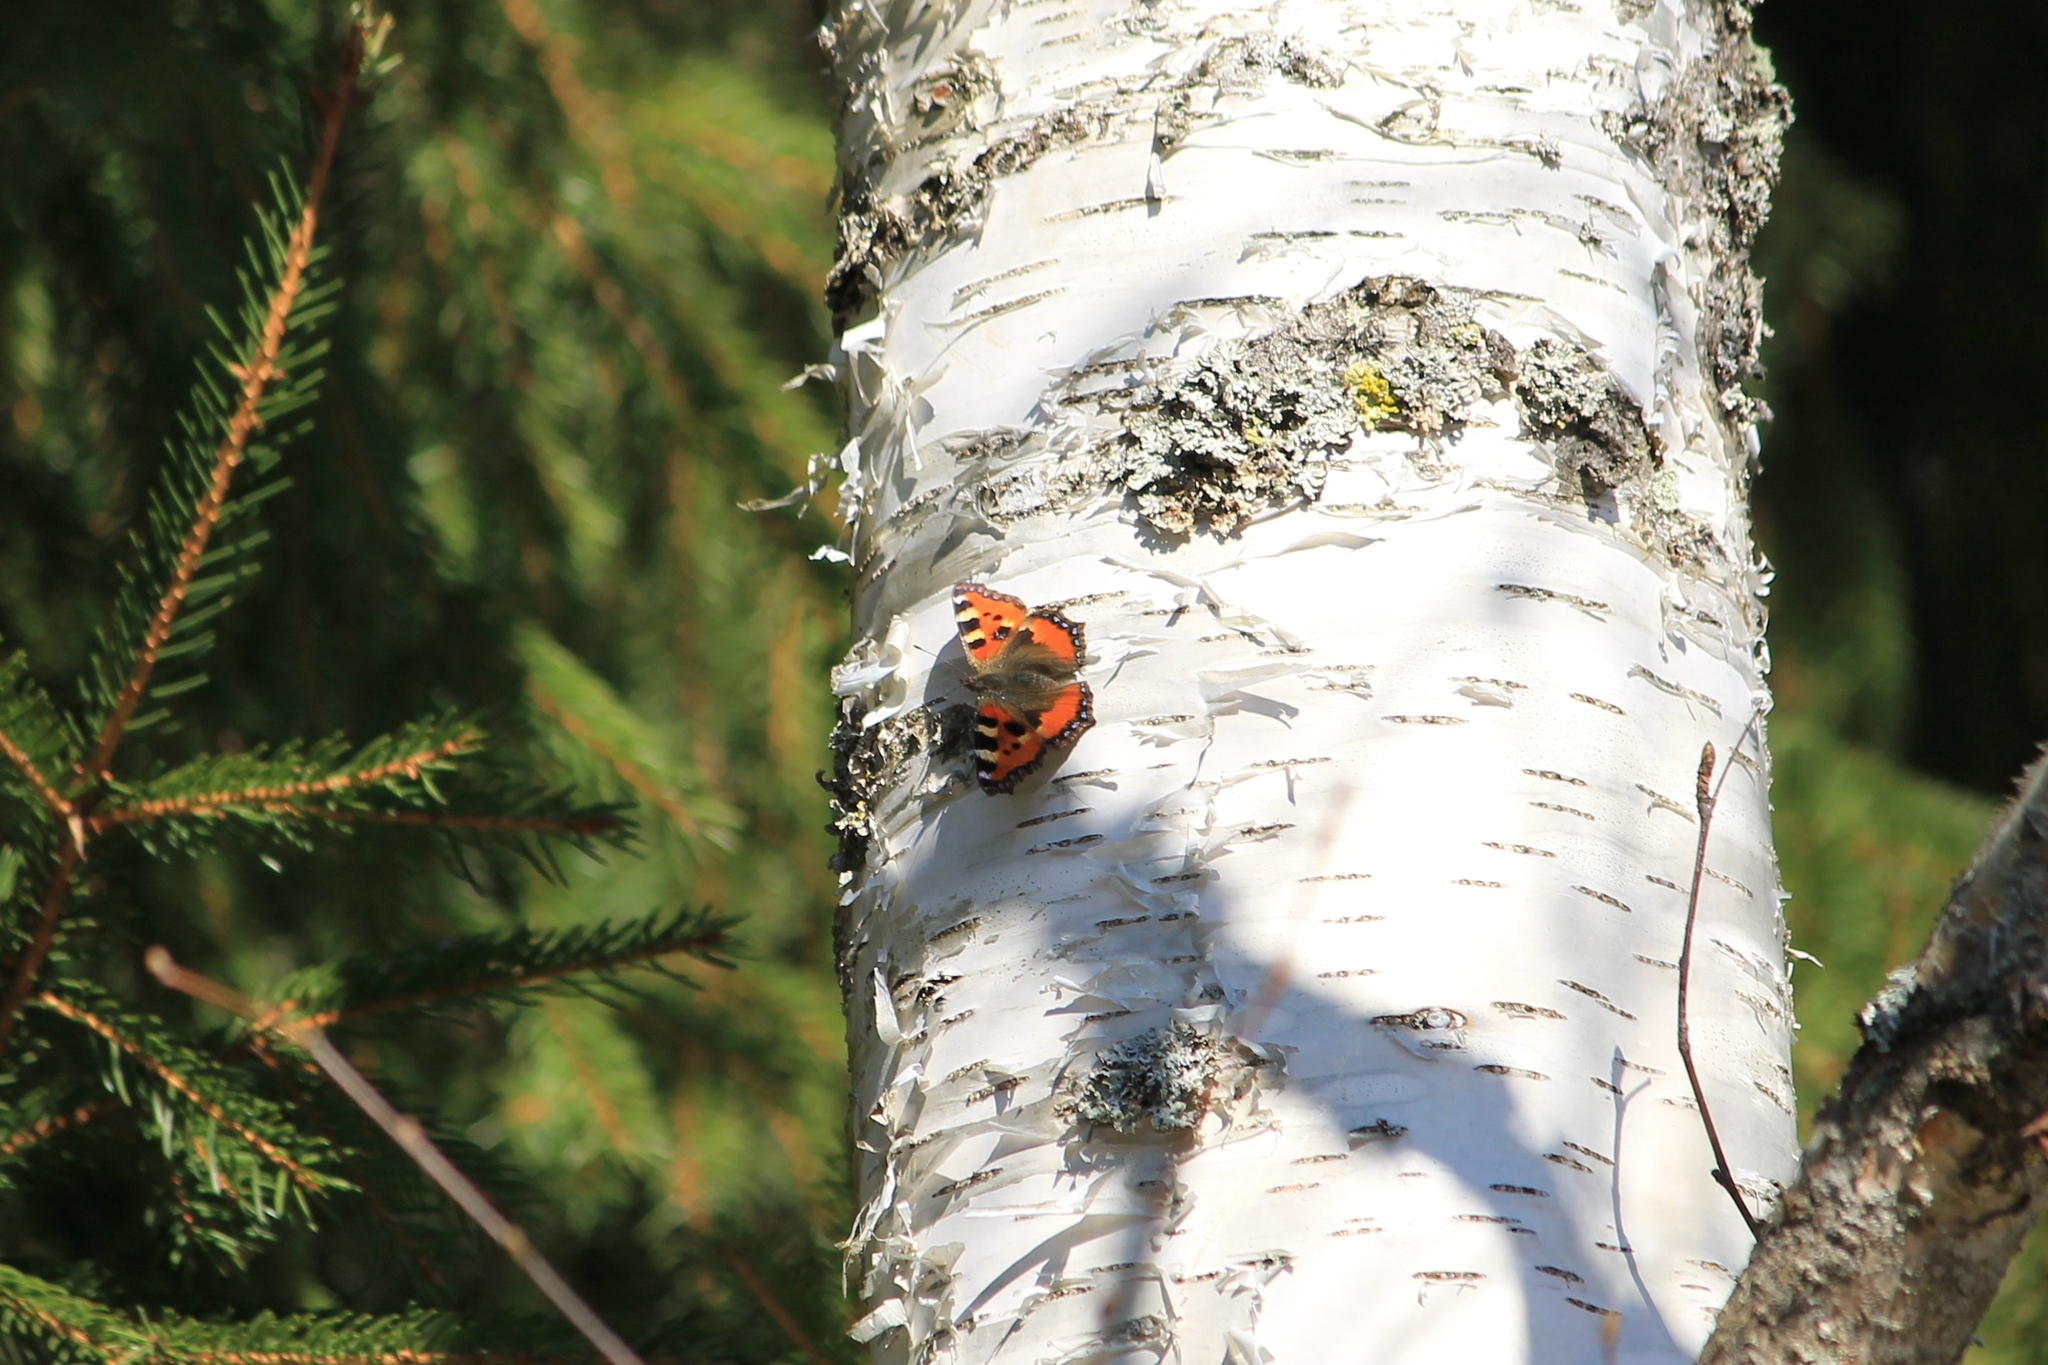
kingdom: Animalia
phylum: Arthropoda
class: Insecta
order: Lepidoptera
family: Nymphalidae
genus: Aglais
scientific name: Aglais urticae
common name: Small tortoiseshell
